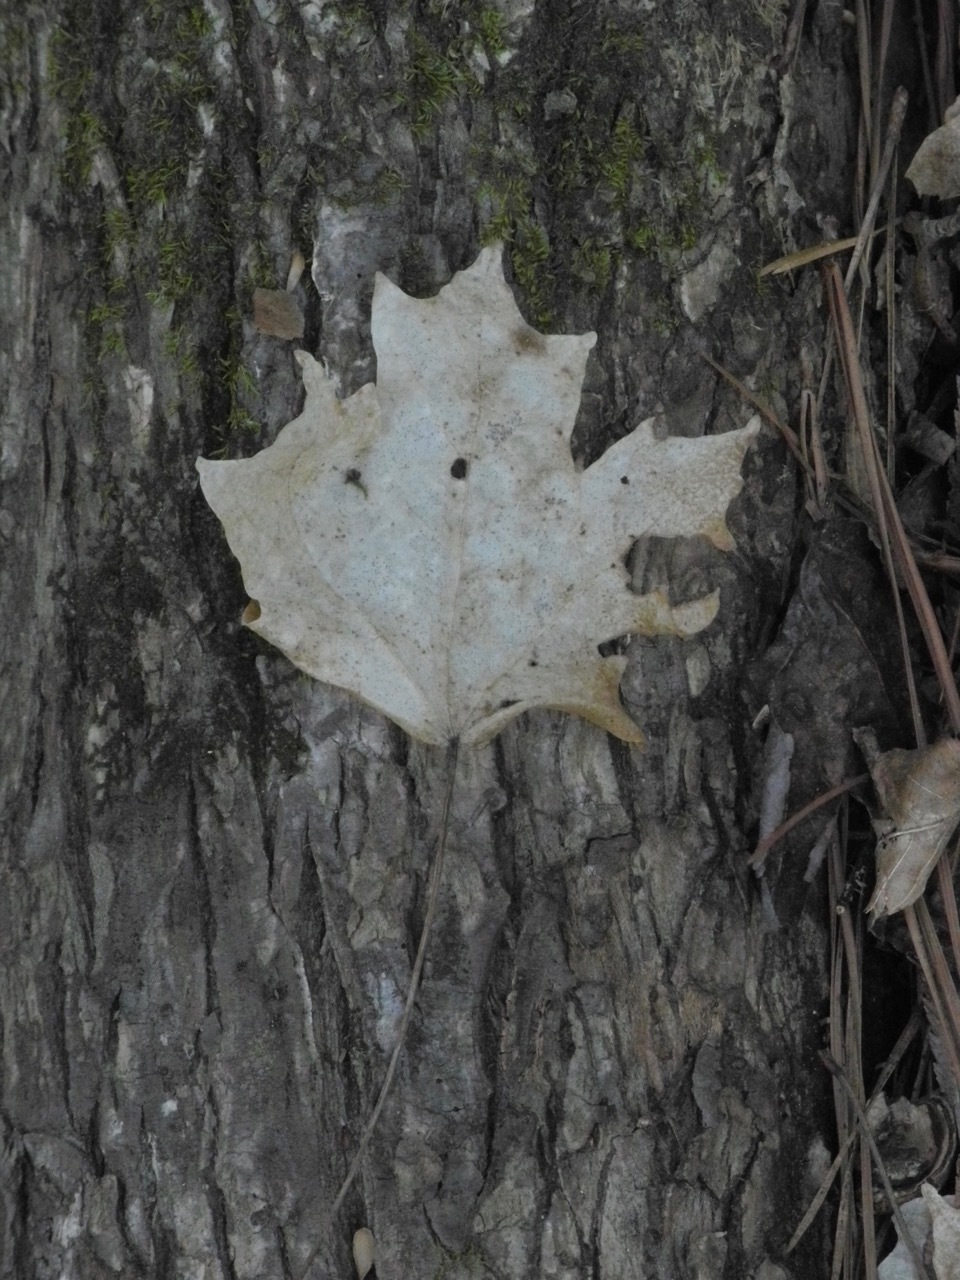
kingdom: Plantae
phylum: Tracheophyta
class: Magnoliopsida
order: Sapindales
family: Sapindaceae
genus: Acer
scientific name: Acer floridanum
